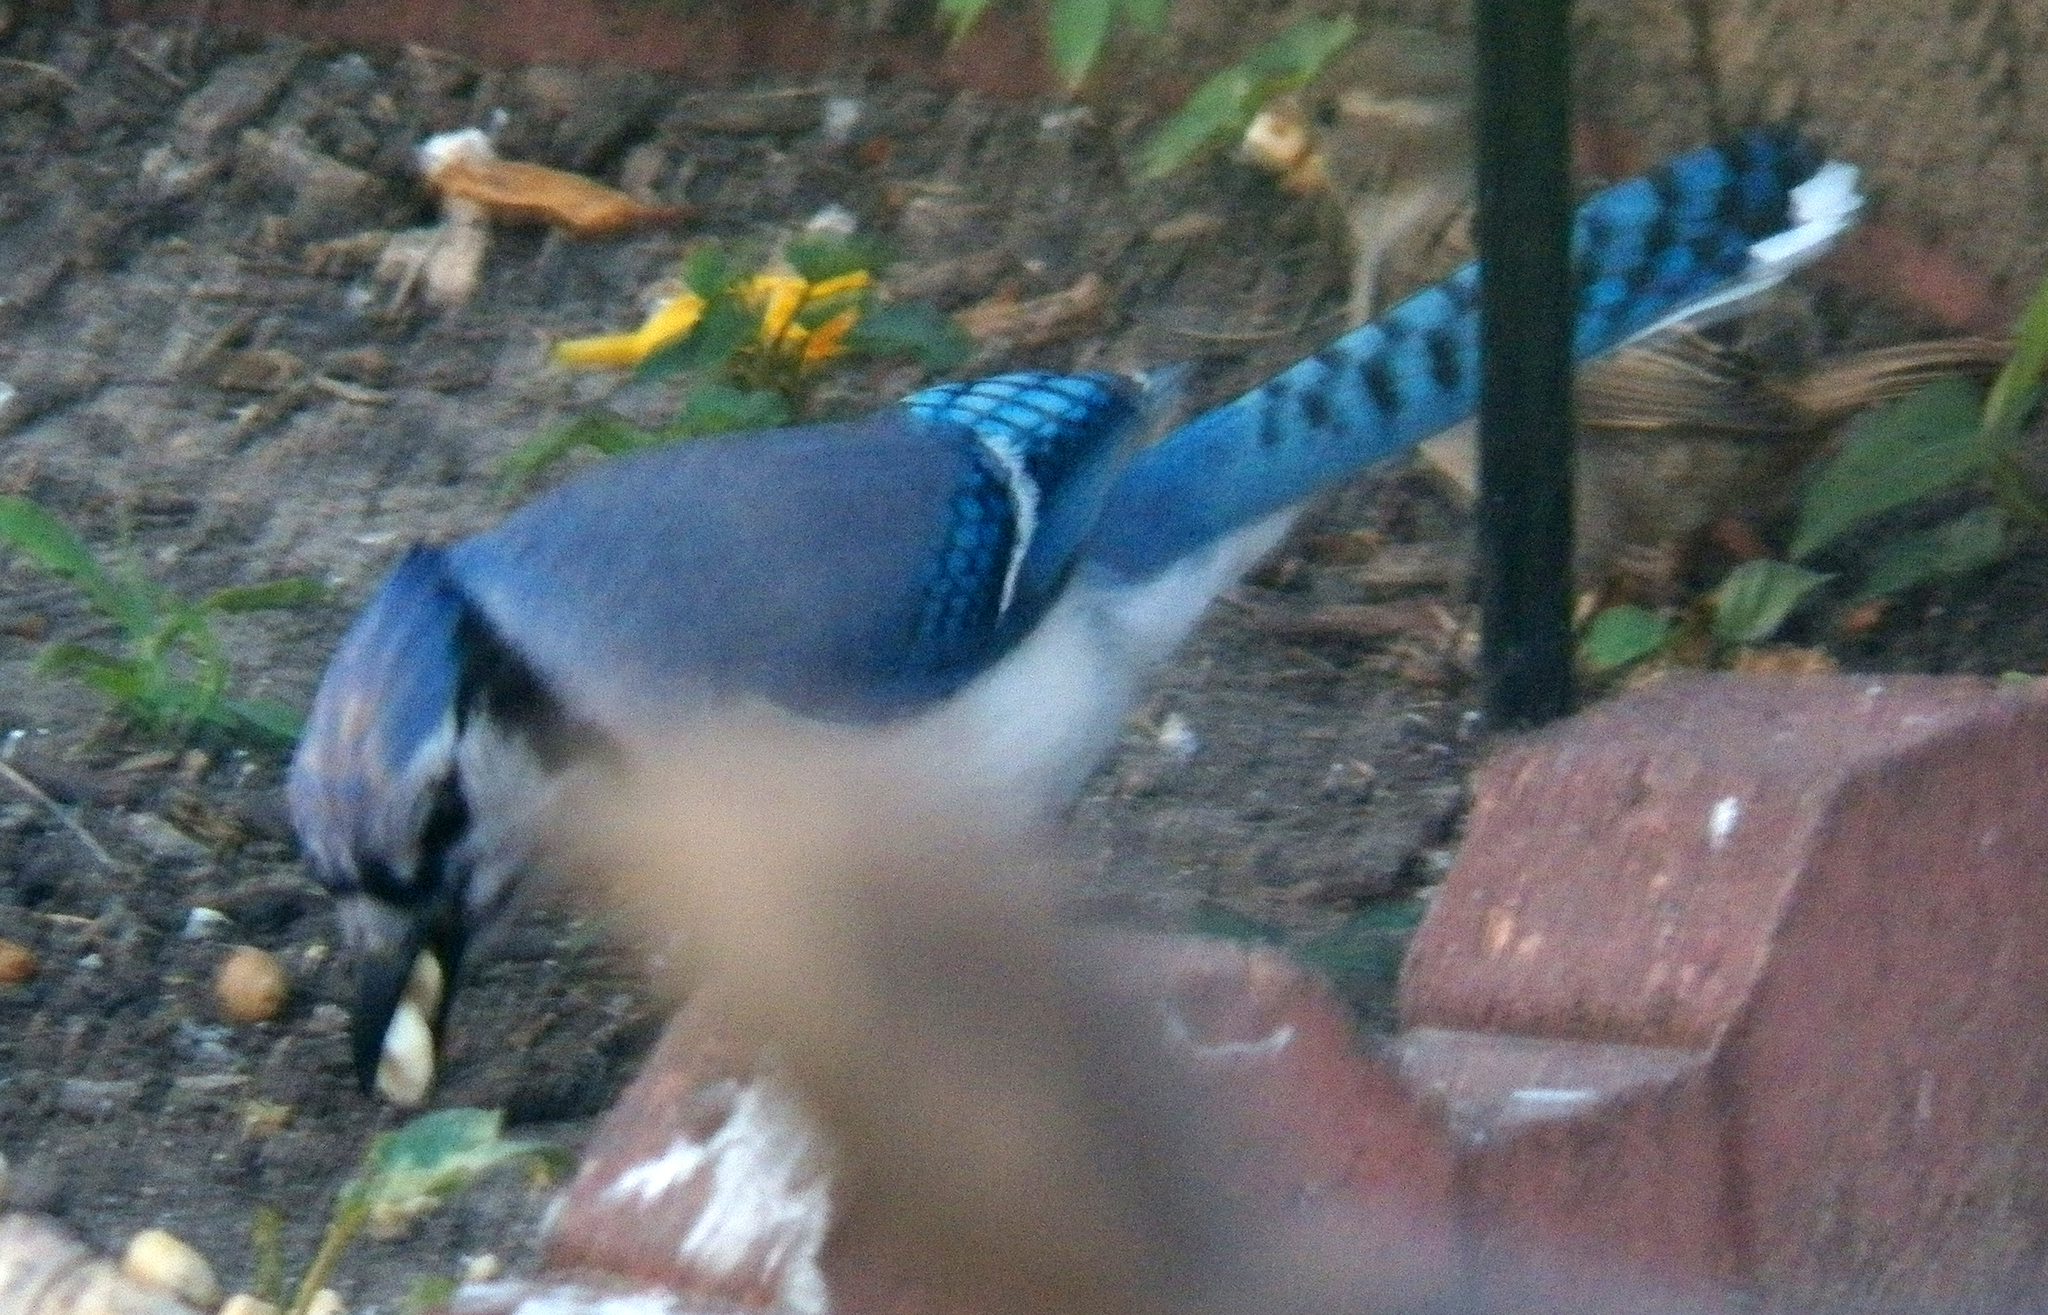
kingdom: Animalia
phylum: Chordata
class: Aves
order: Passeriformes
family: Corvidae
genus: Cyanocitta
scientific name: Cyanocitta cristata
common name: Blue jay
